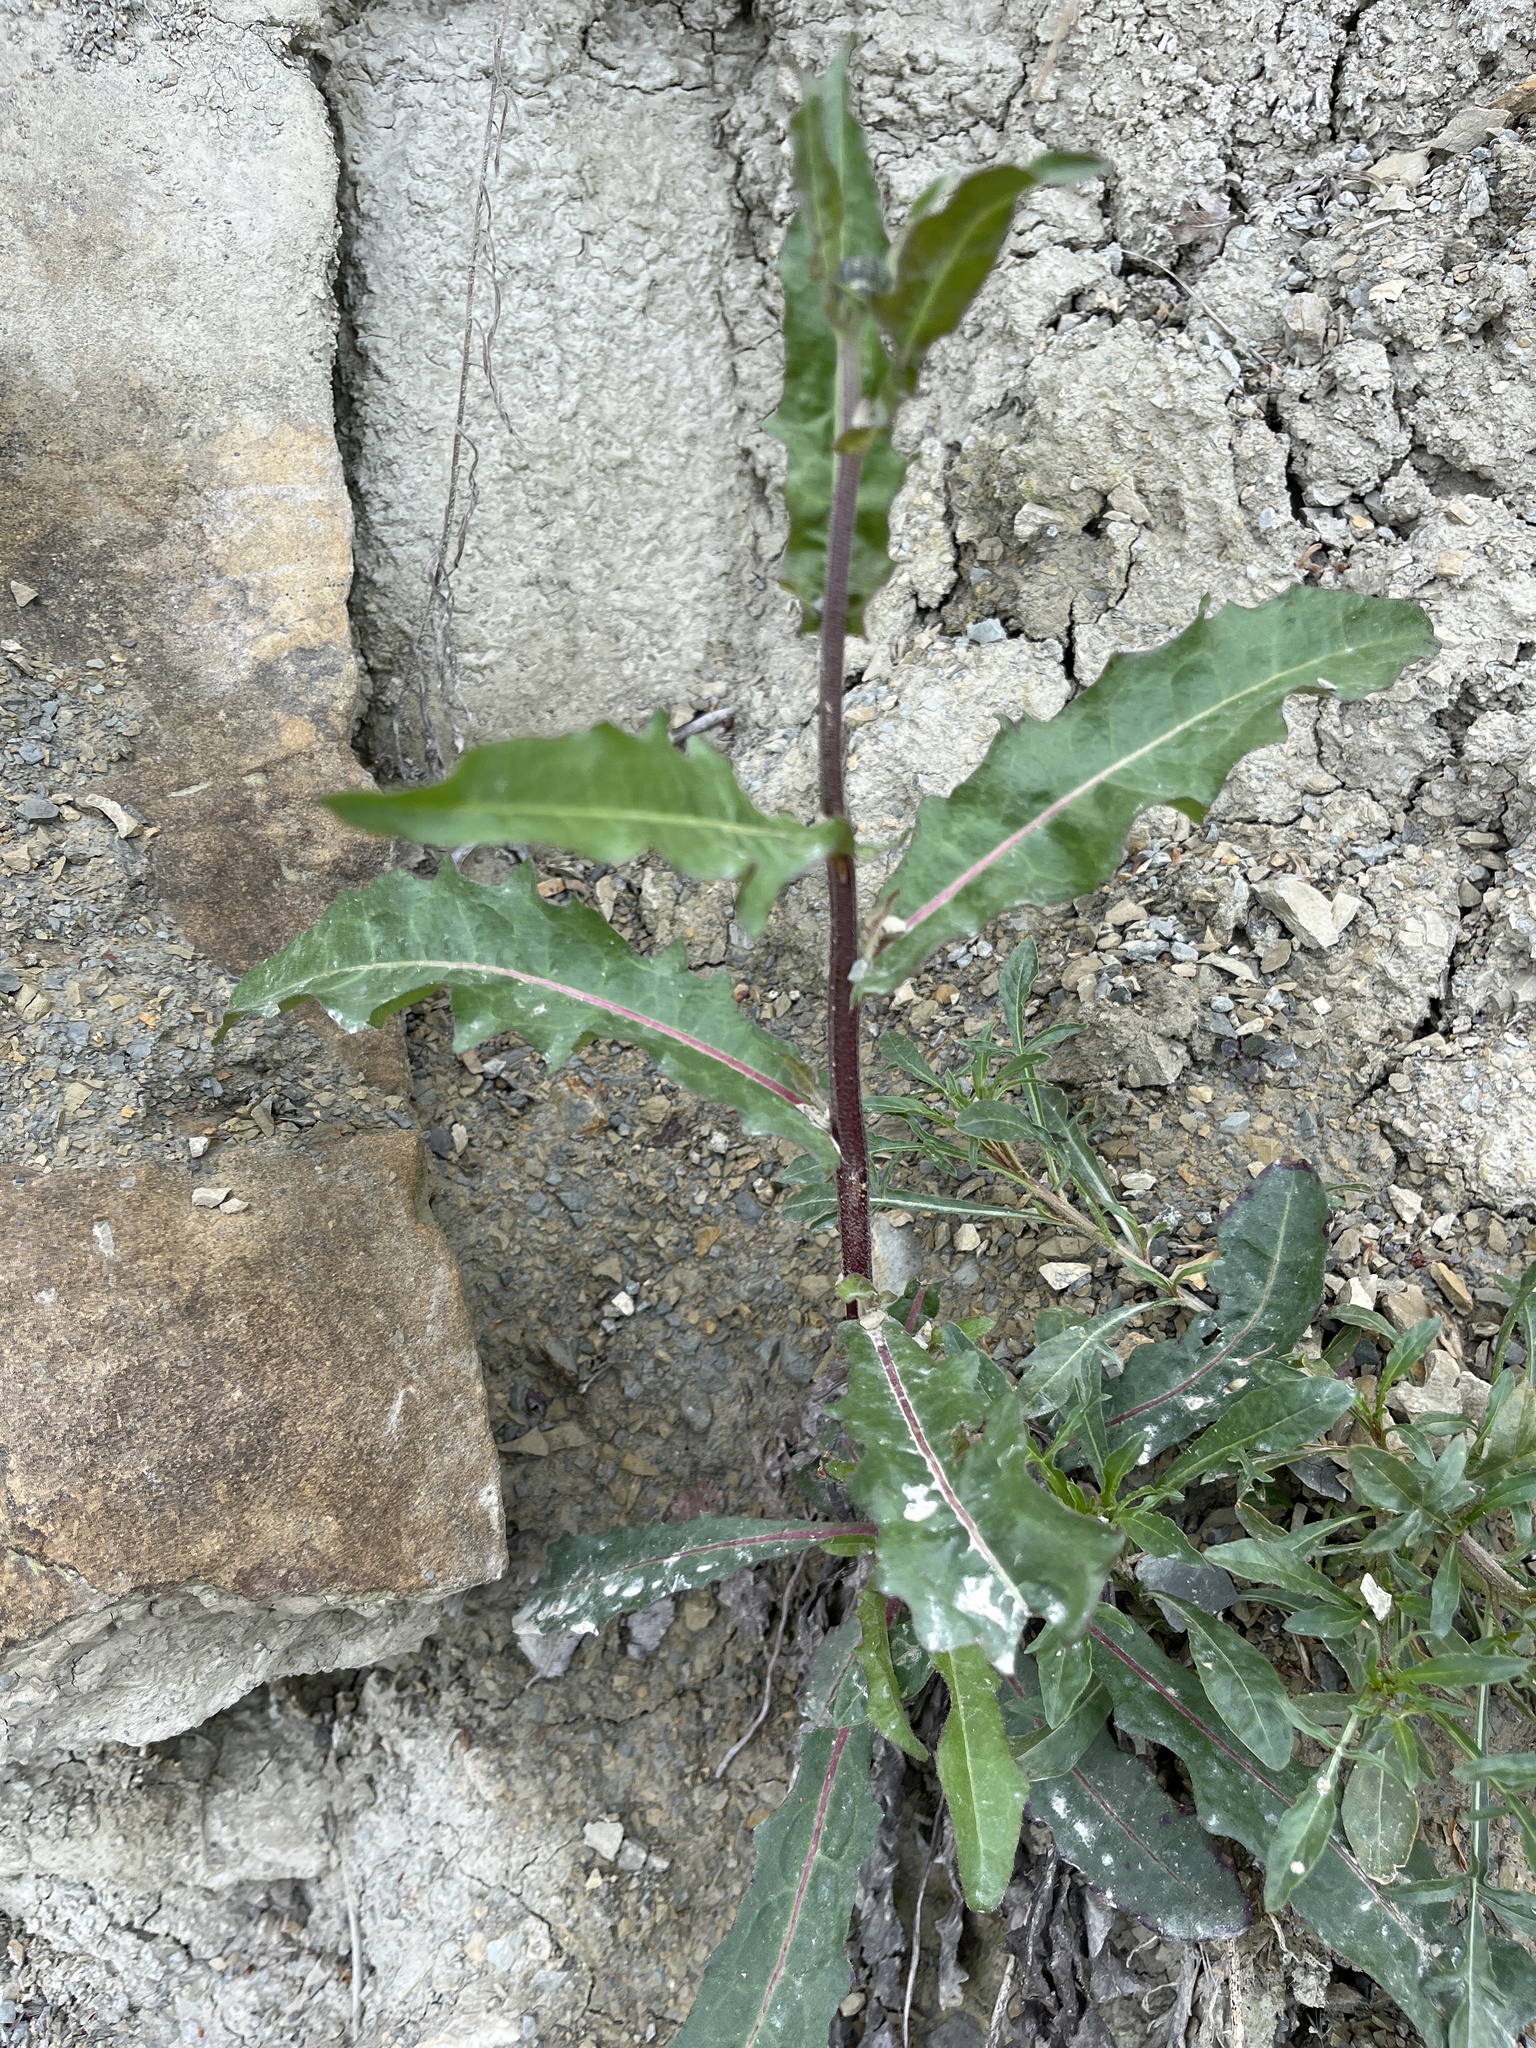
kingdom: Plantae
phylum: Tracheophyta
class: Magnoliopsida
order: Asterales
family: Asteraceae
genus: Lactuca
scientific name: Lactuca serriola
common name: Prickly lettuce
